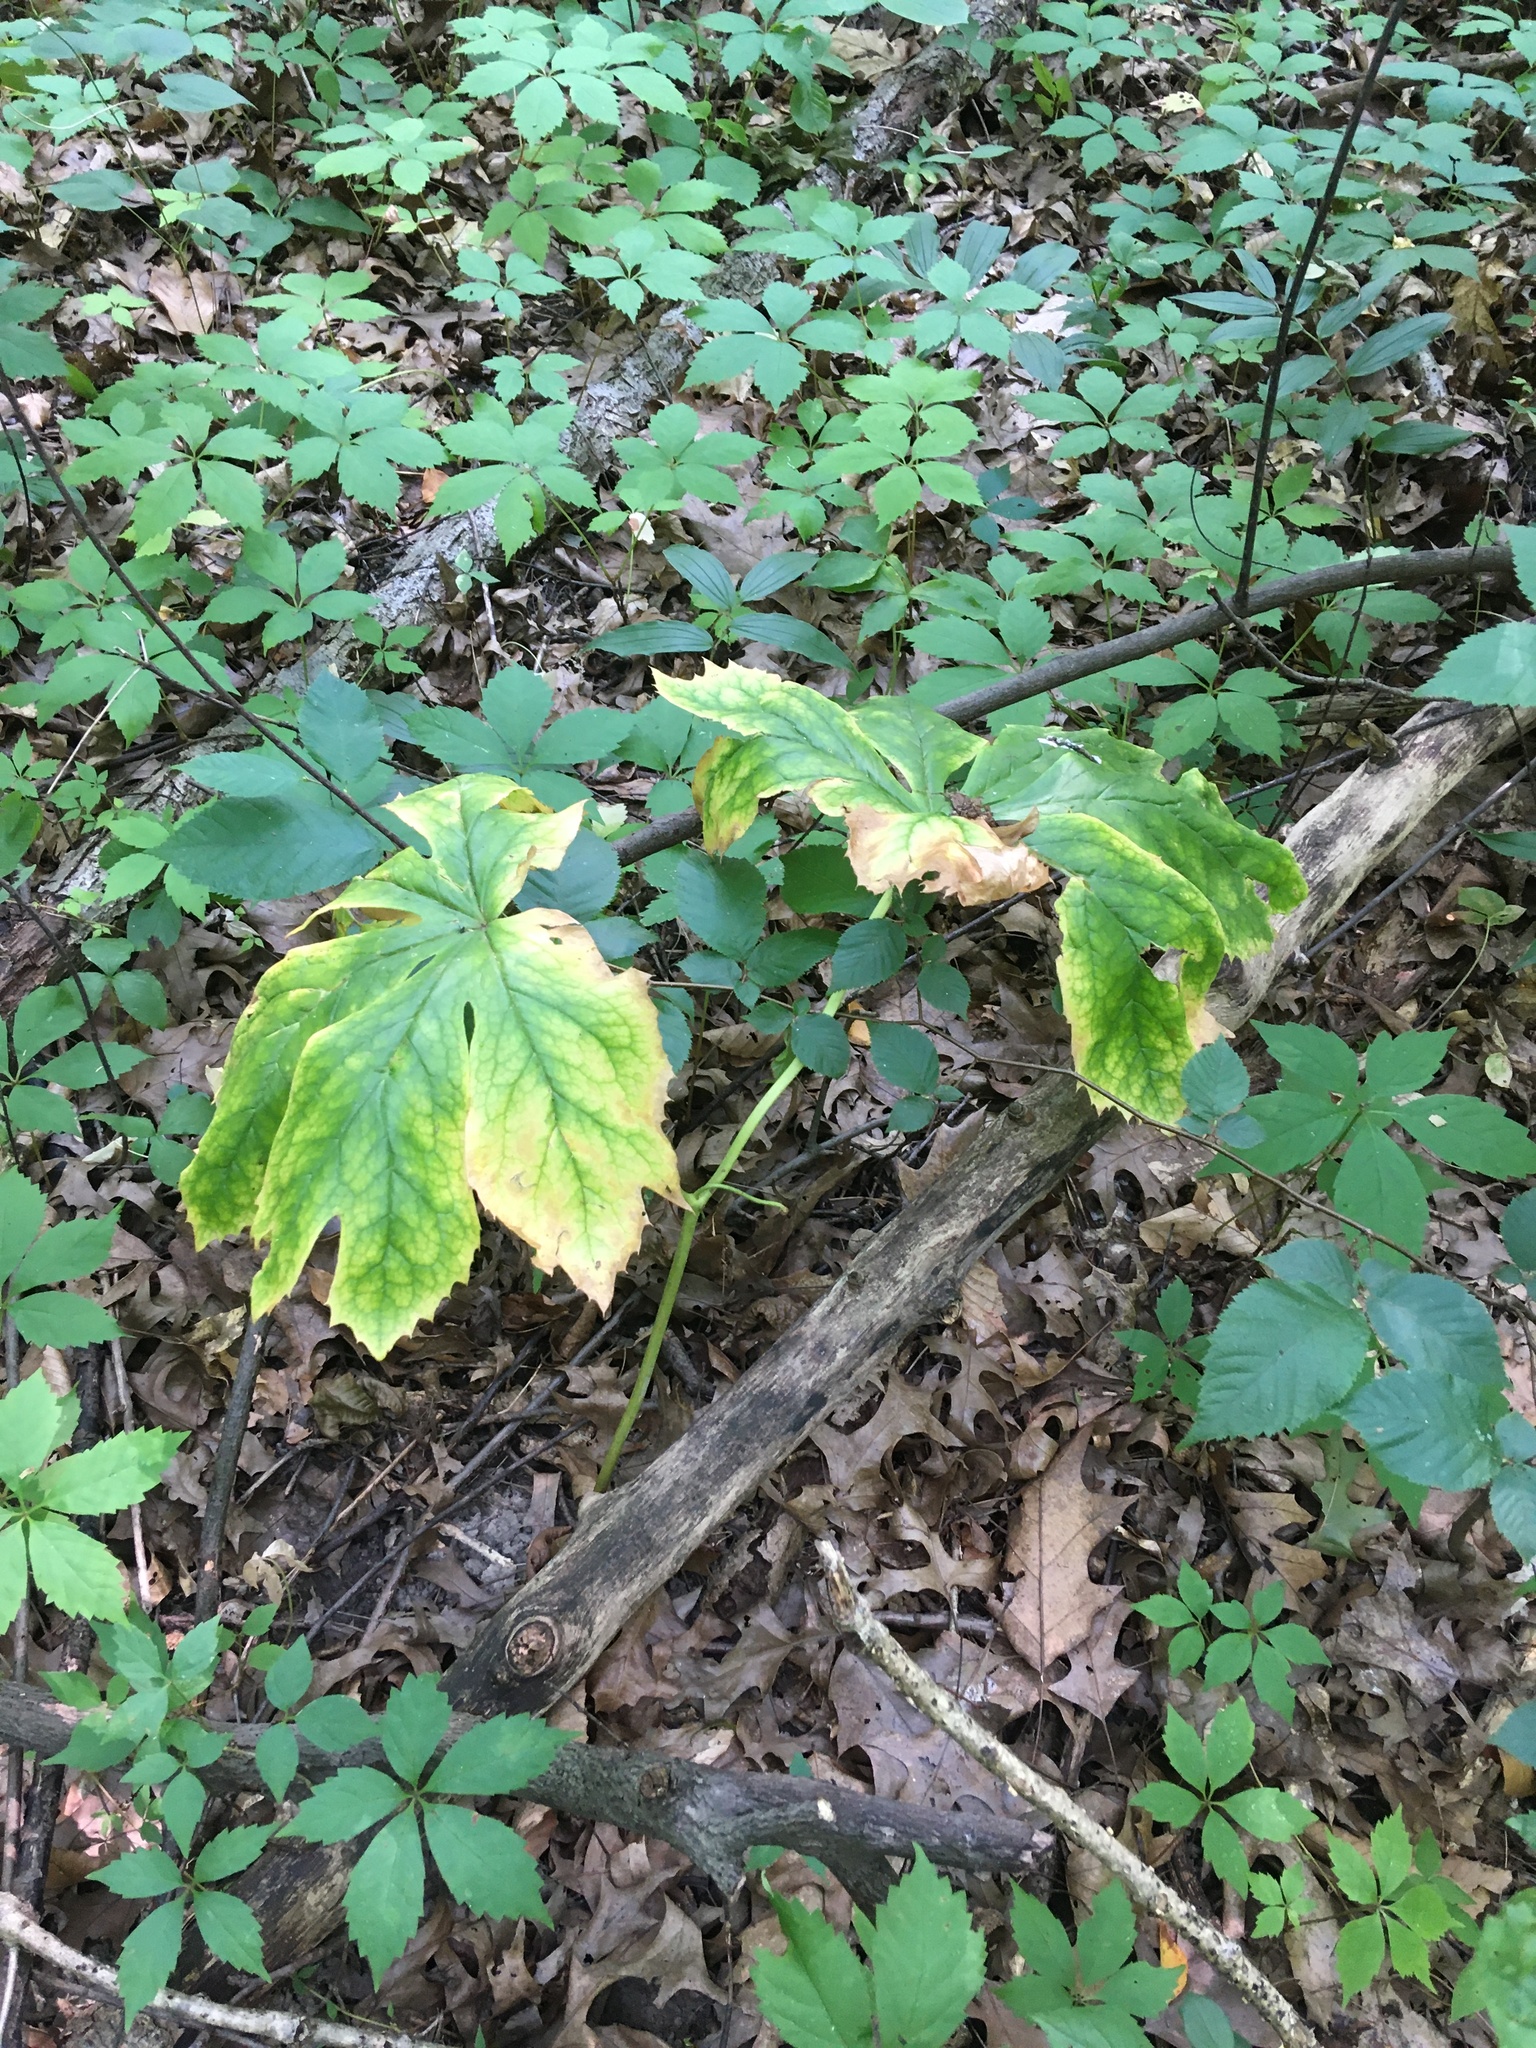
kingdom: Plantae
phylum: Tracheophyta
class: Magnoliopsida
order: Ranunculales
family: Berberidaceae
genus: Podophyllum
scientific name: Podophyllum peltatum
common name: Wild mandrake
